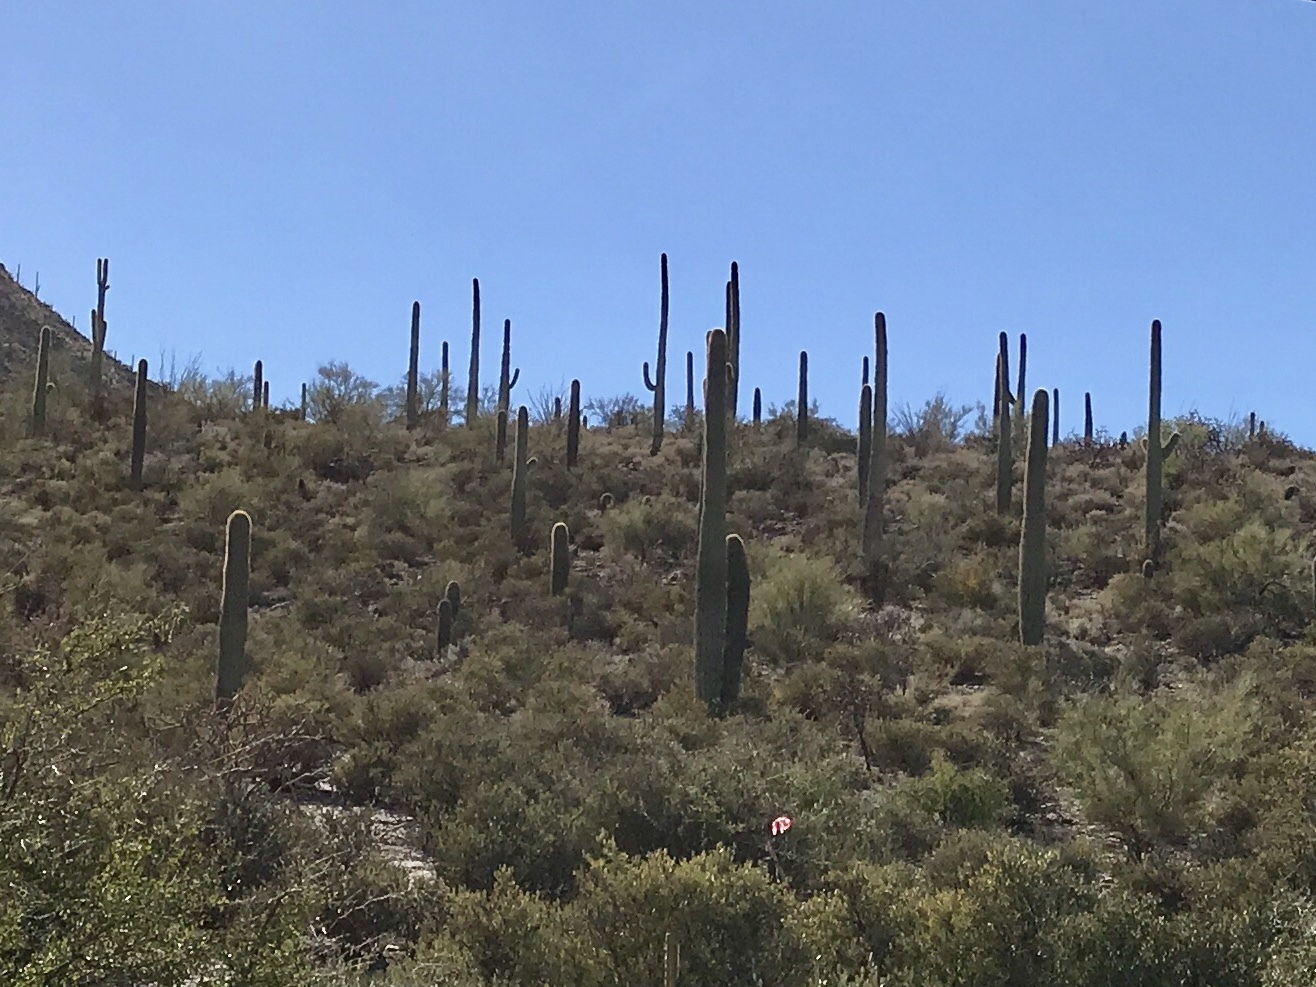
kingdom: Plantae
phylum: Tracheophyta
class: Magnoliopsida
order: Caryophyllales
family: Cactaceae
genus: Carnegiea
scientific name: Carnegiea gigantea
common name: Saguaro
